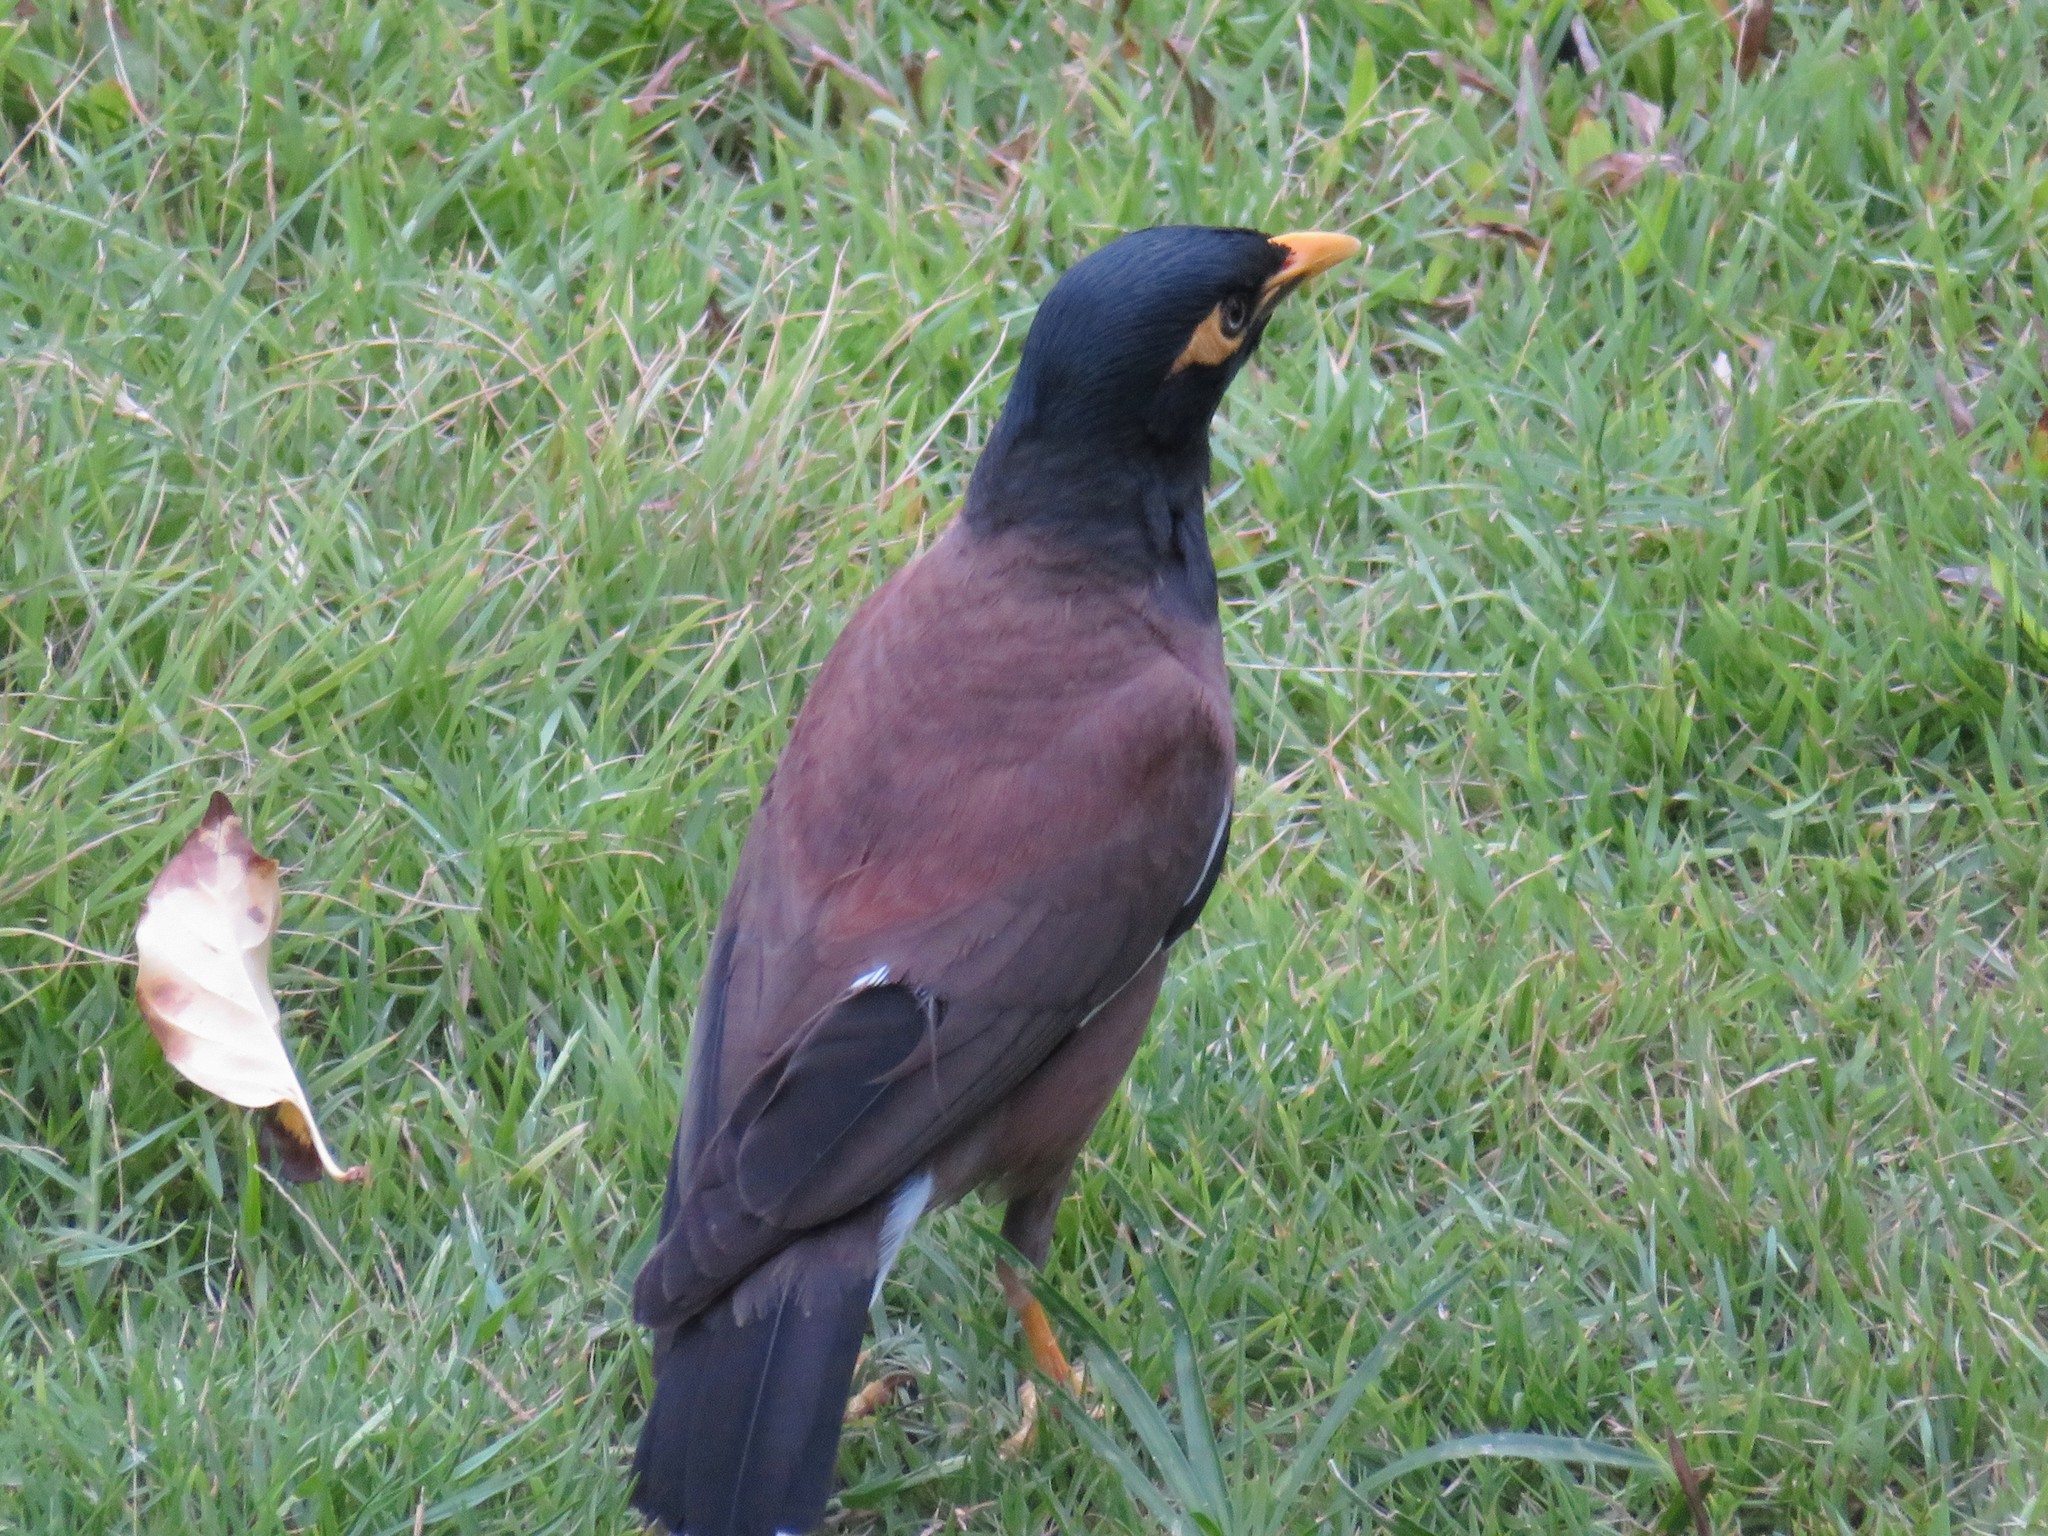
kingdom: Animalia
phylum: Chordata
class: Aves
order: Passeriformes
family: Sturnidae
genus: Acridotheres
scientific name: Acridotheres tristis
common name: Common myna
